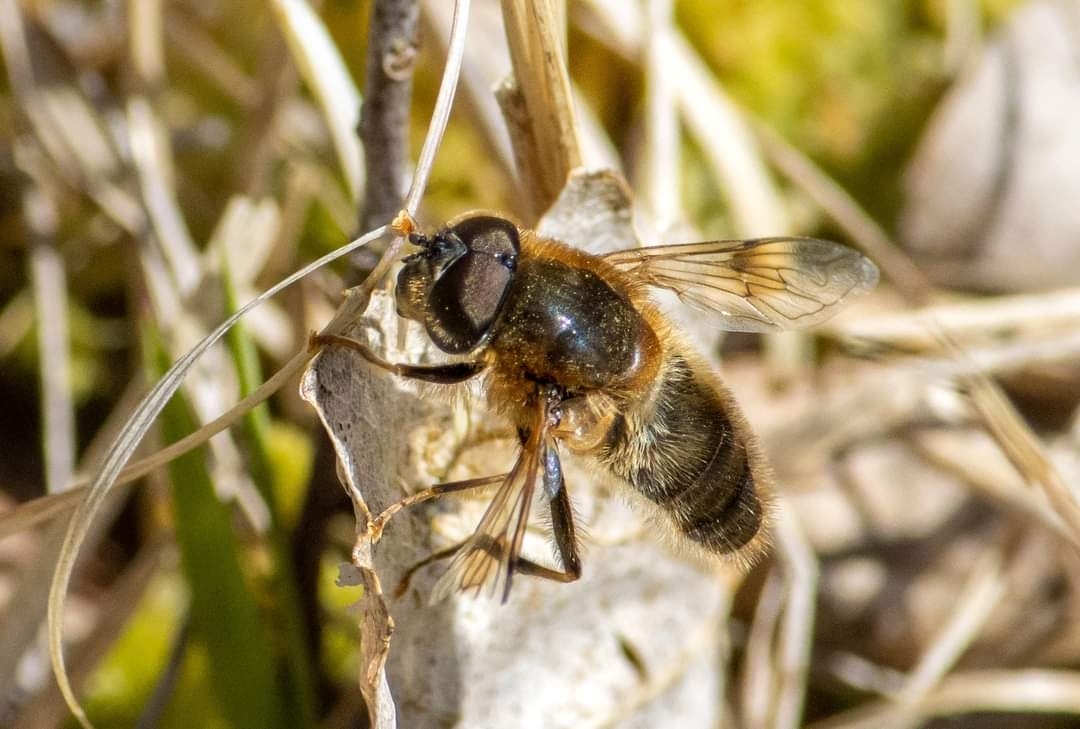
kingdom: Animalia
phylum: Arthropoda
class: Insecta
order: Diptera
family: Syrphidae
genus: Eristalis
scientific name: Eristalis pertinax
